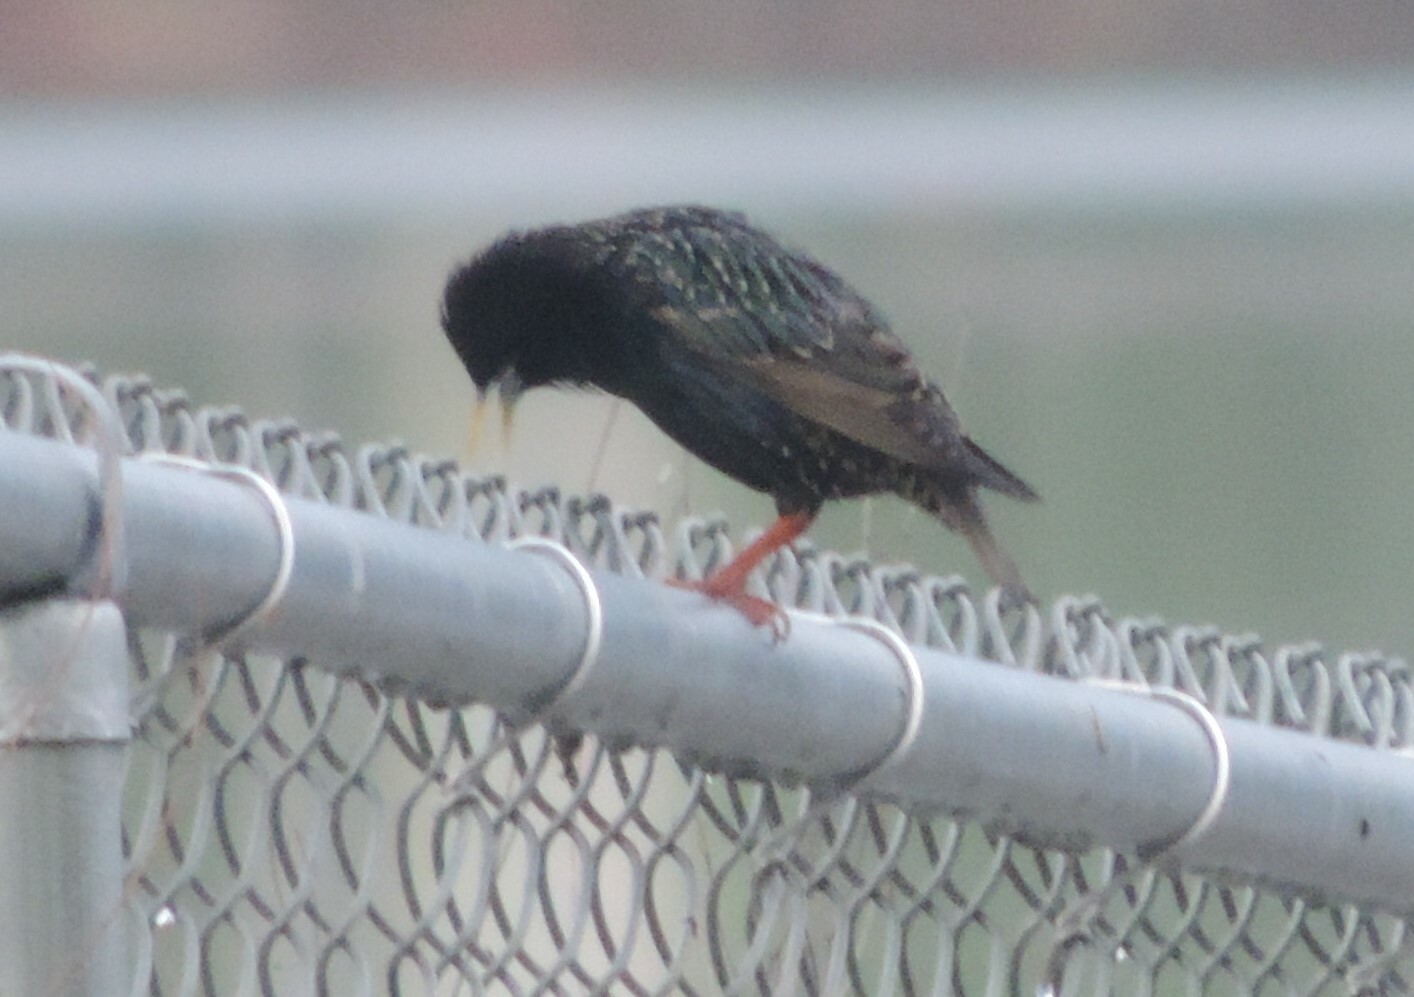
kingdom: Animalia
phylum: Chordata
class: Aves
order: Passeriformes
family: Sturnidae
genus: Sturnus
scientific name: Sturnus vulgaris
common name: Common starling
